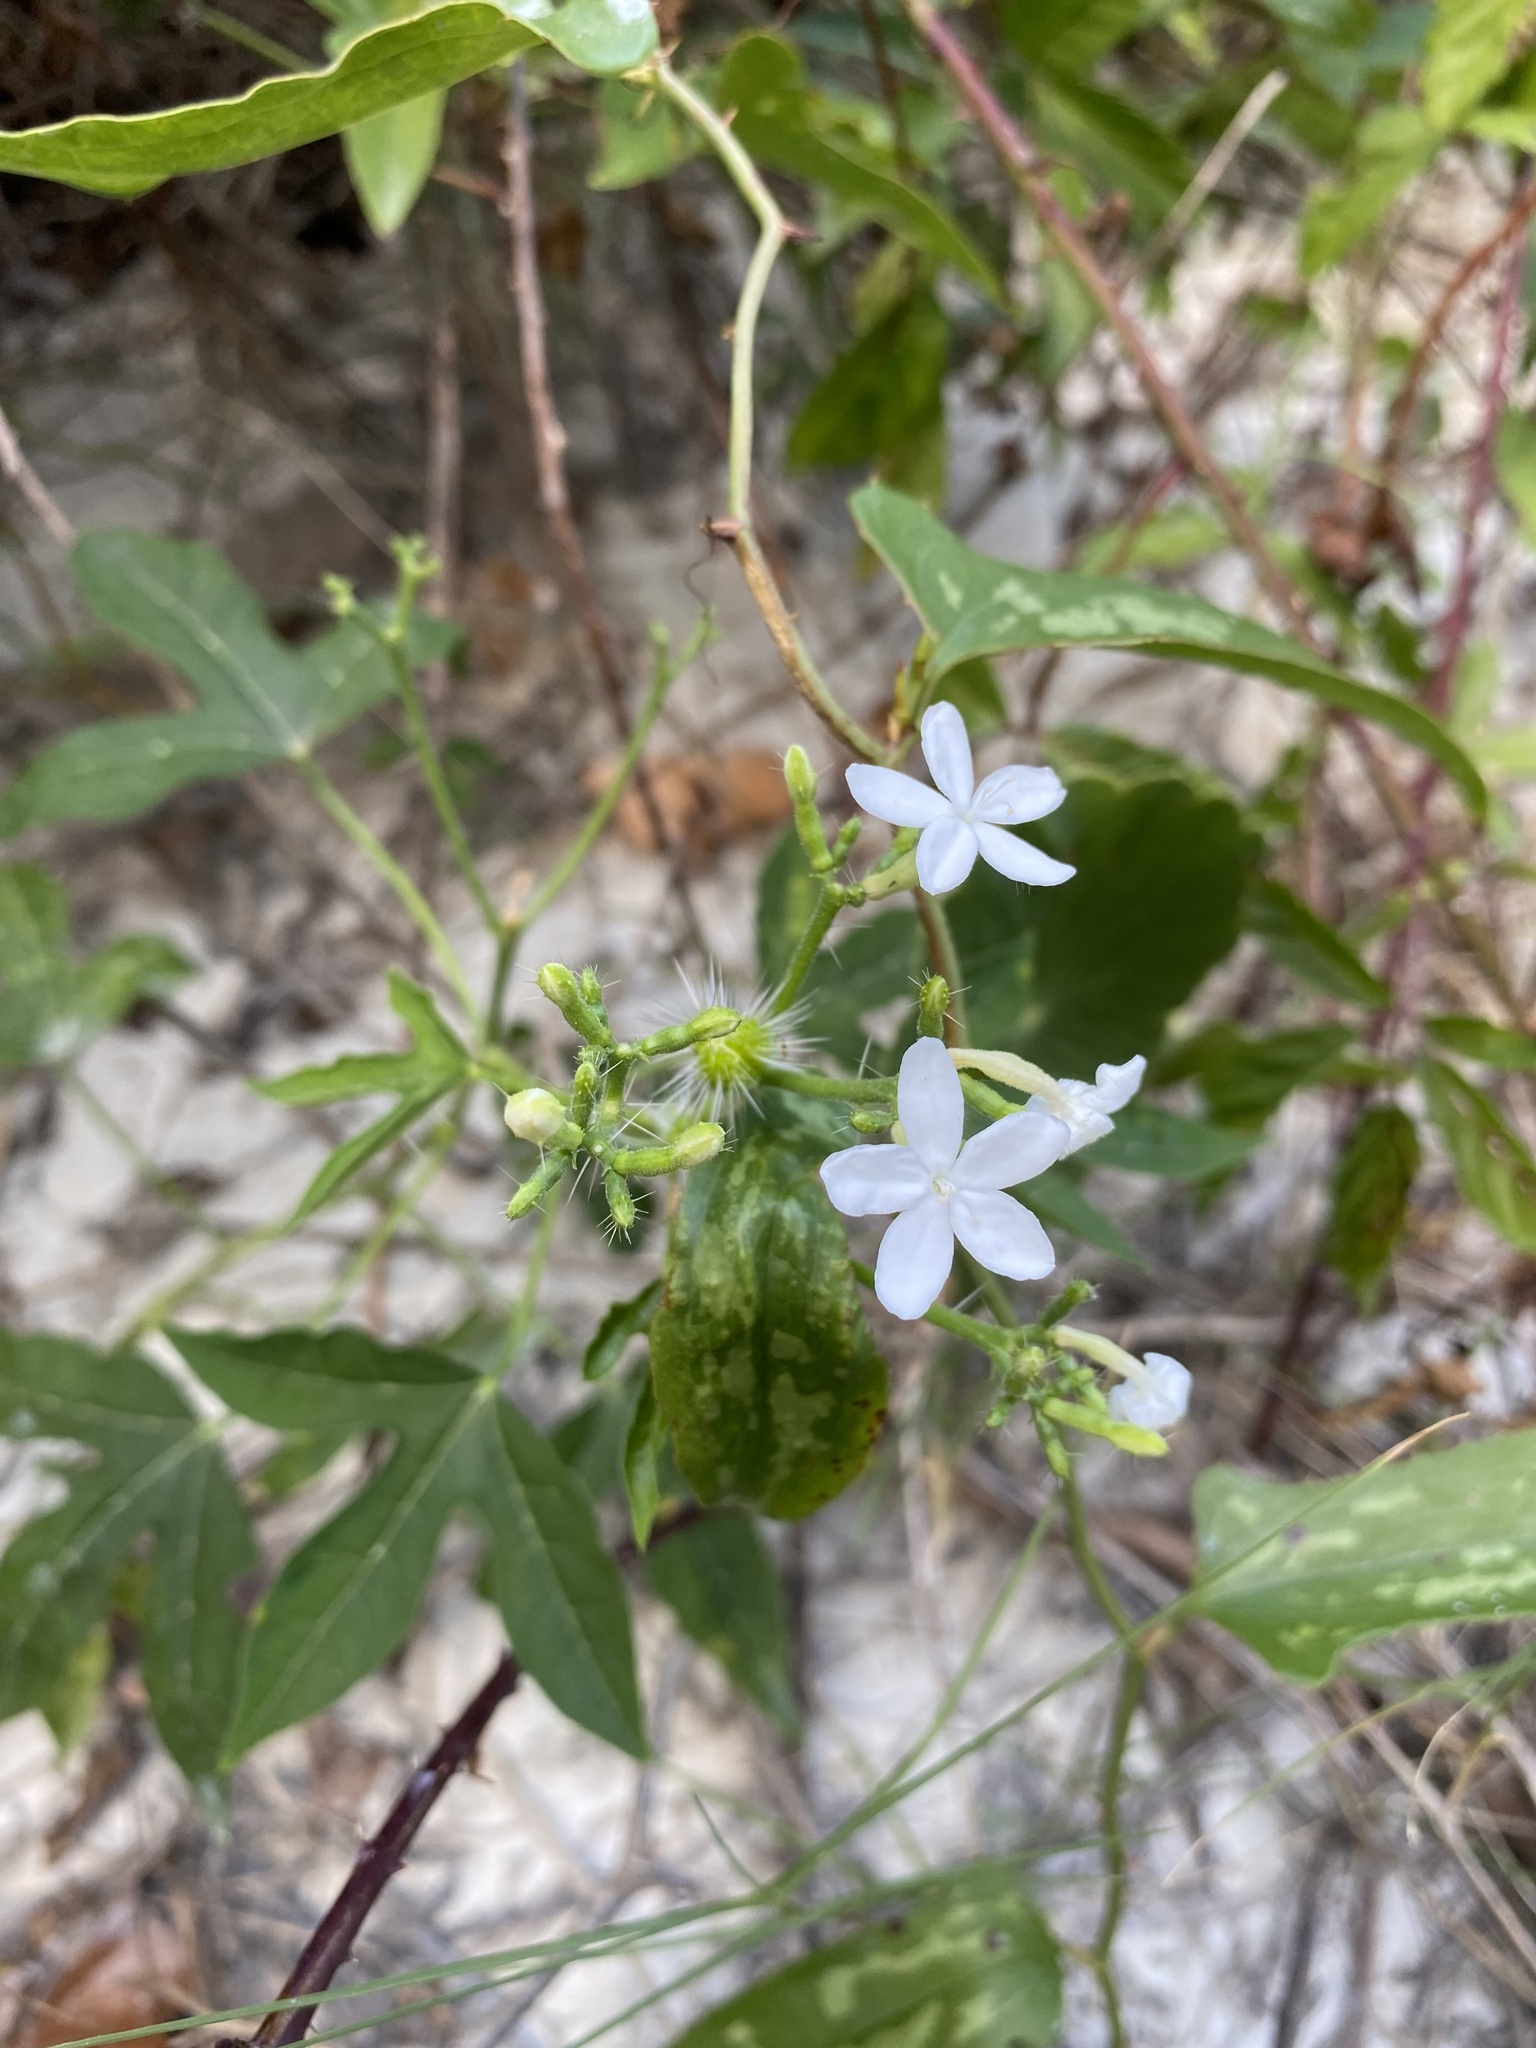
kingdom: Plantae
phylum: Tracheophyta
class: Magnoliopsida
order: Malpighiales
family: Euphorbiaceae
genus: Cnidoscolus
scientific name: Cnidoscolus stimulosus
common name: Bull-nettle
